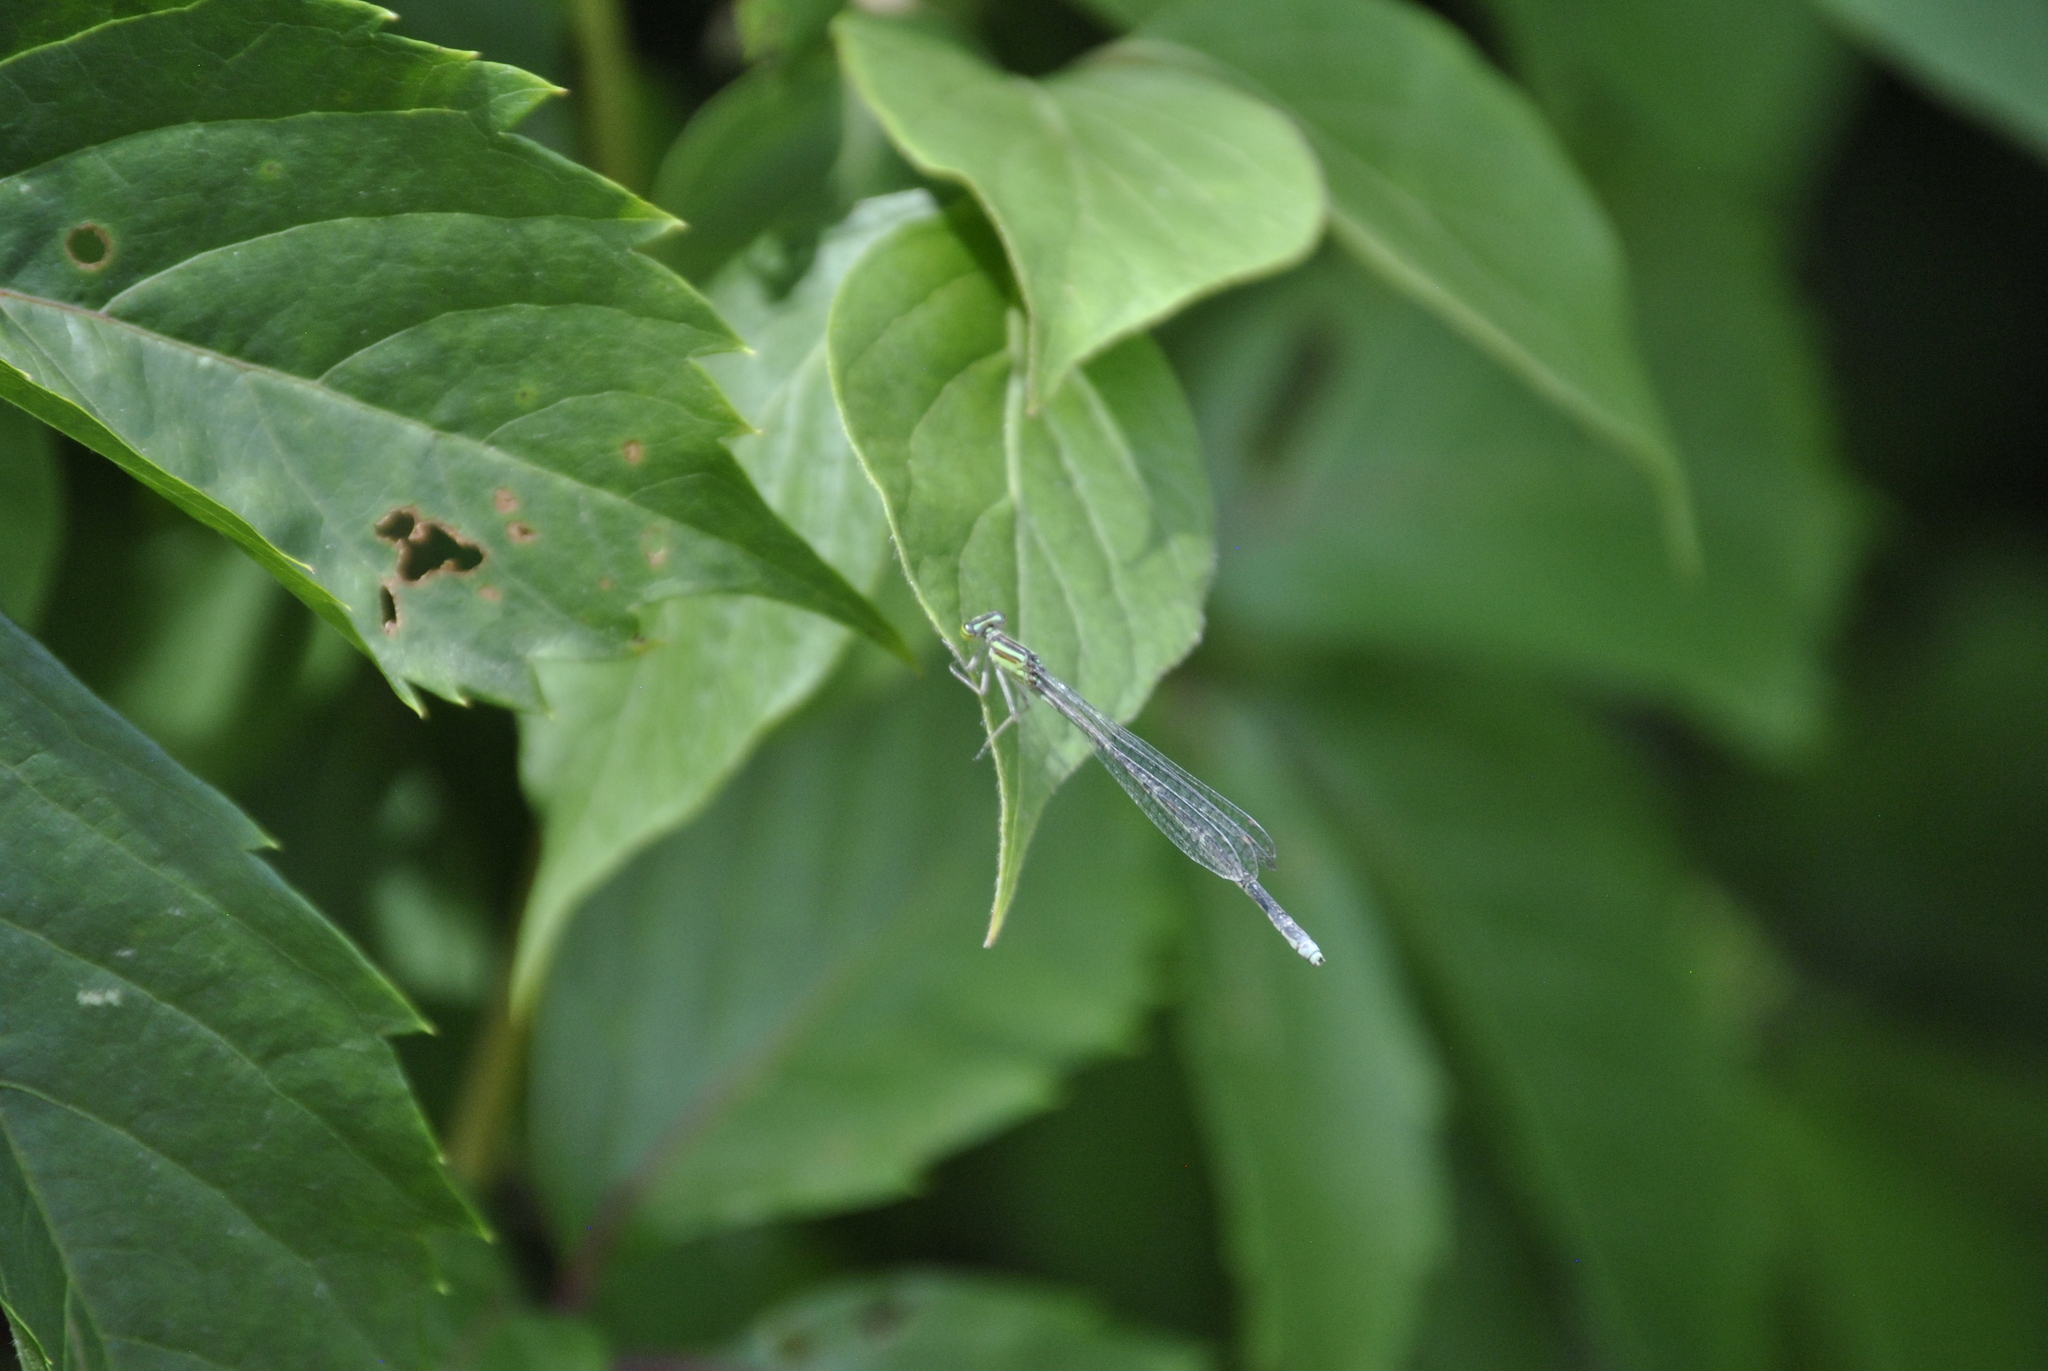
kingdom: Animalia
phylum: Arthropoda
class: Insecta
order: Odonata
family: Coenagrionidae
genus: Enallagma
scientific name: Enallagma exsulans
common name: Stream bluet
